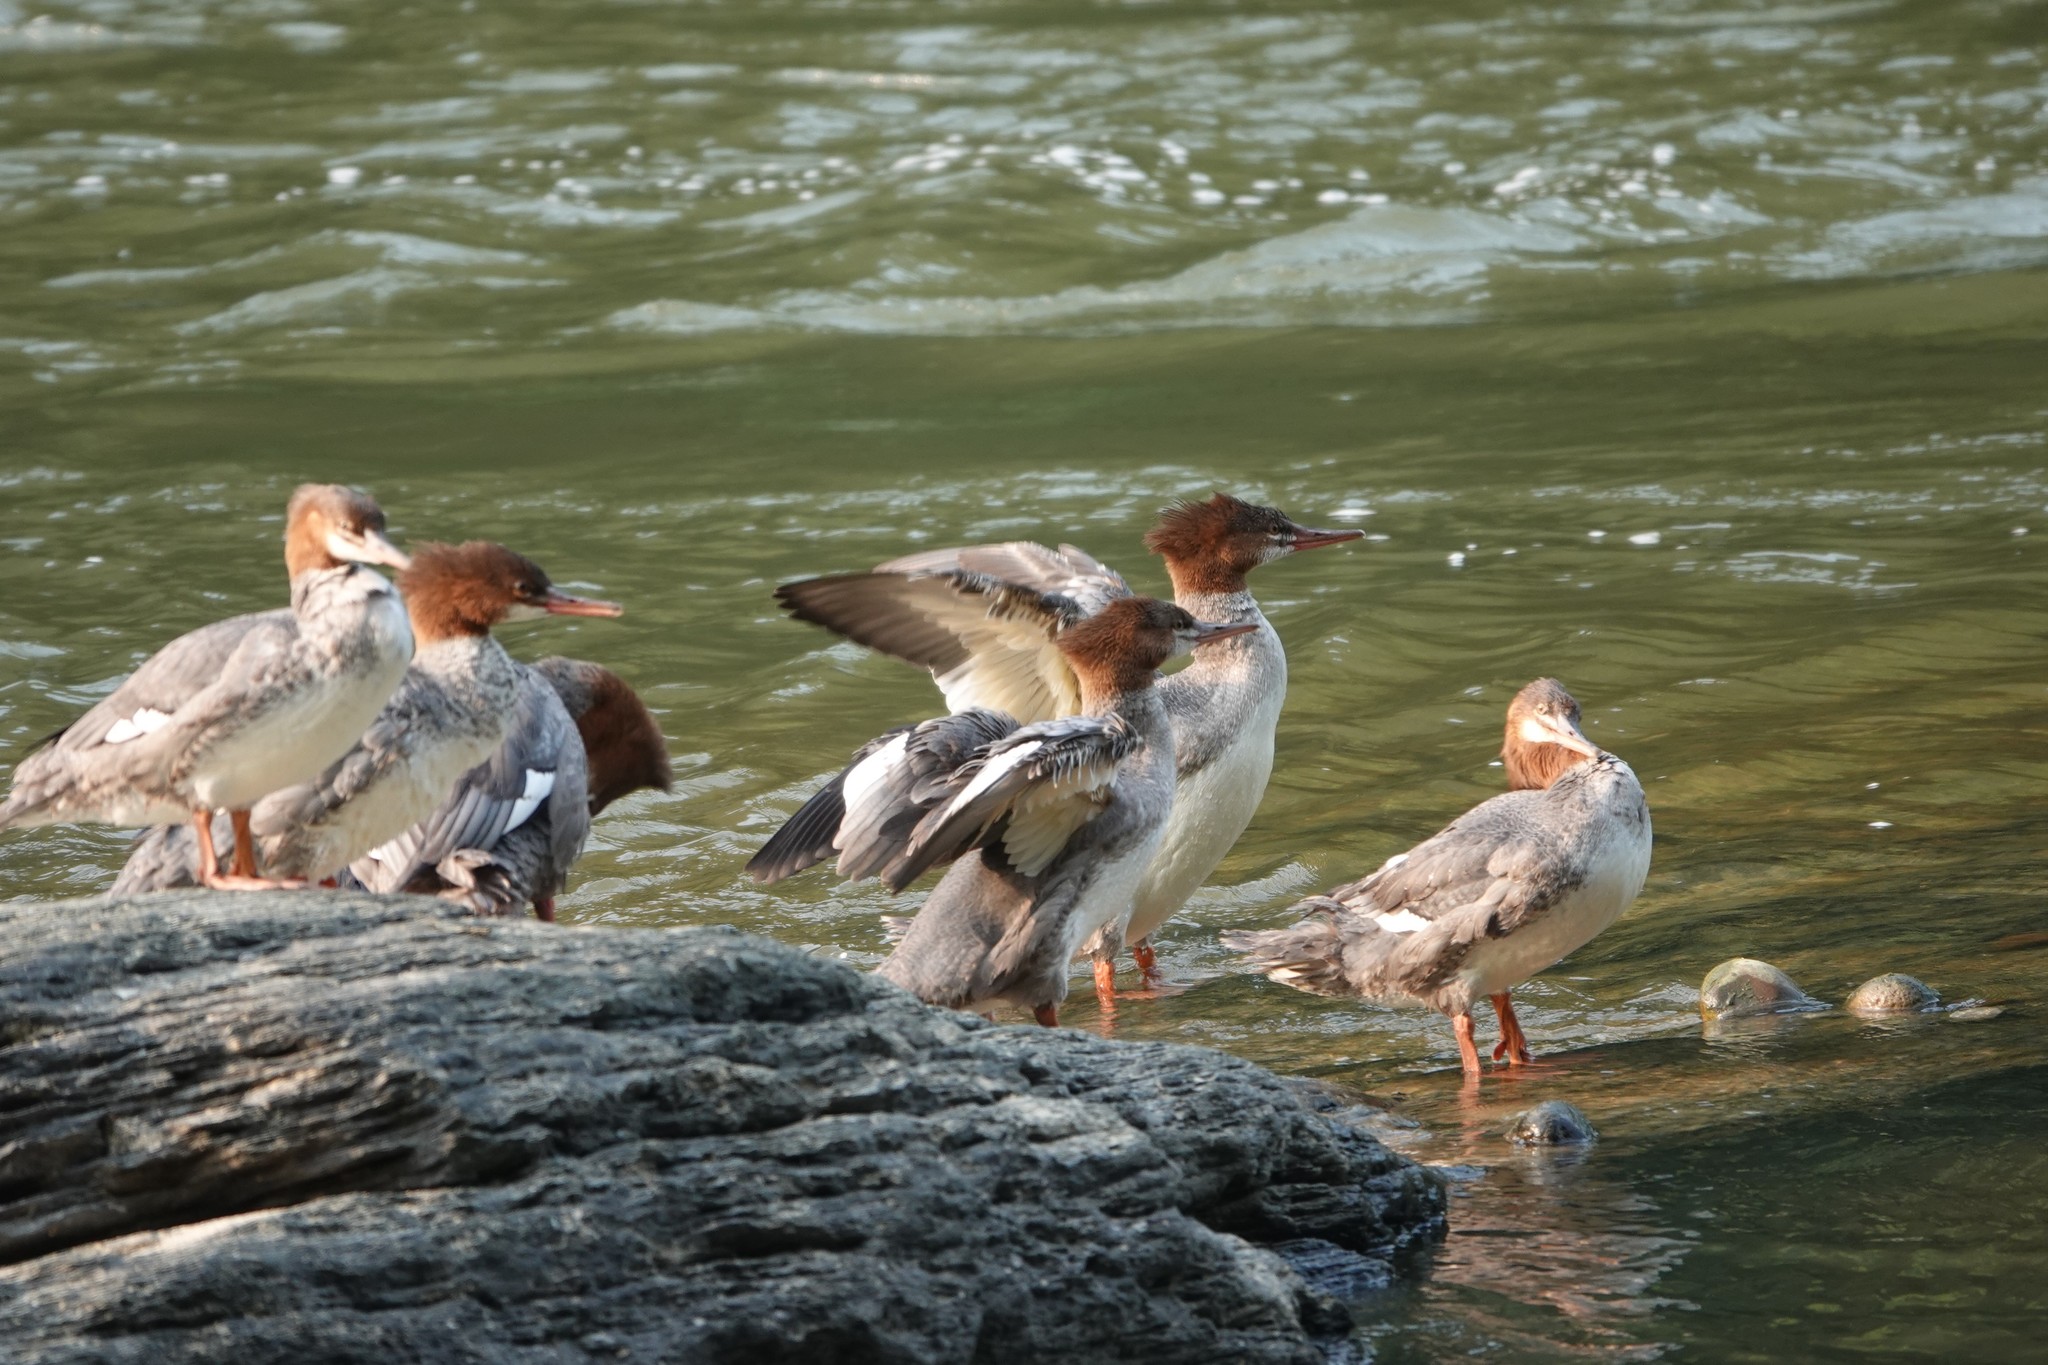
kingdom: Animalia
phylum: Chordata
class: Aves
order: Anseriformes
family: Anatidae
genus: Mergus
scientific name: Mergus merganser
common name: Common merganser
